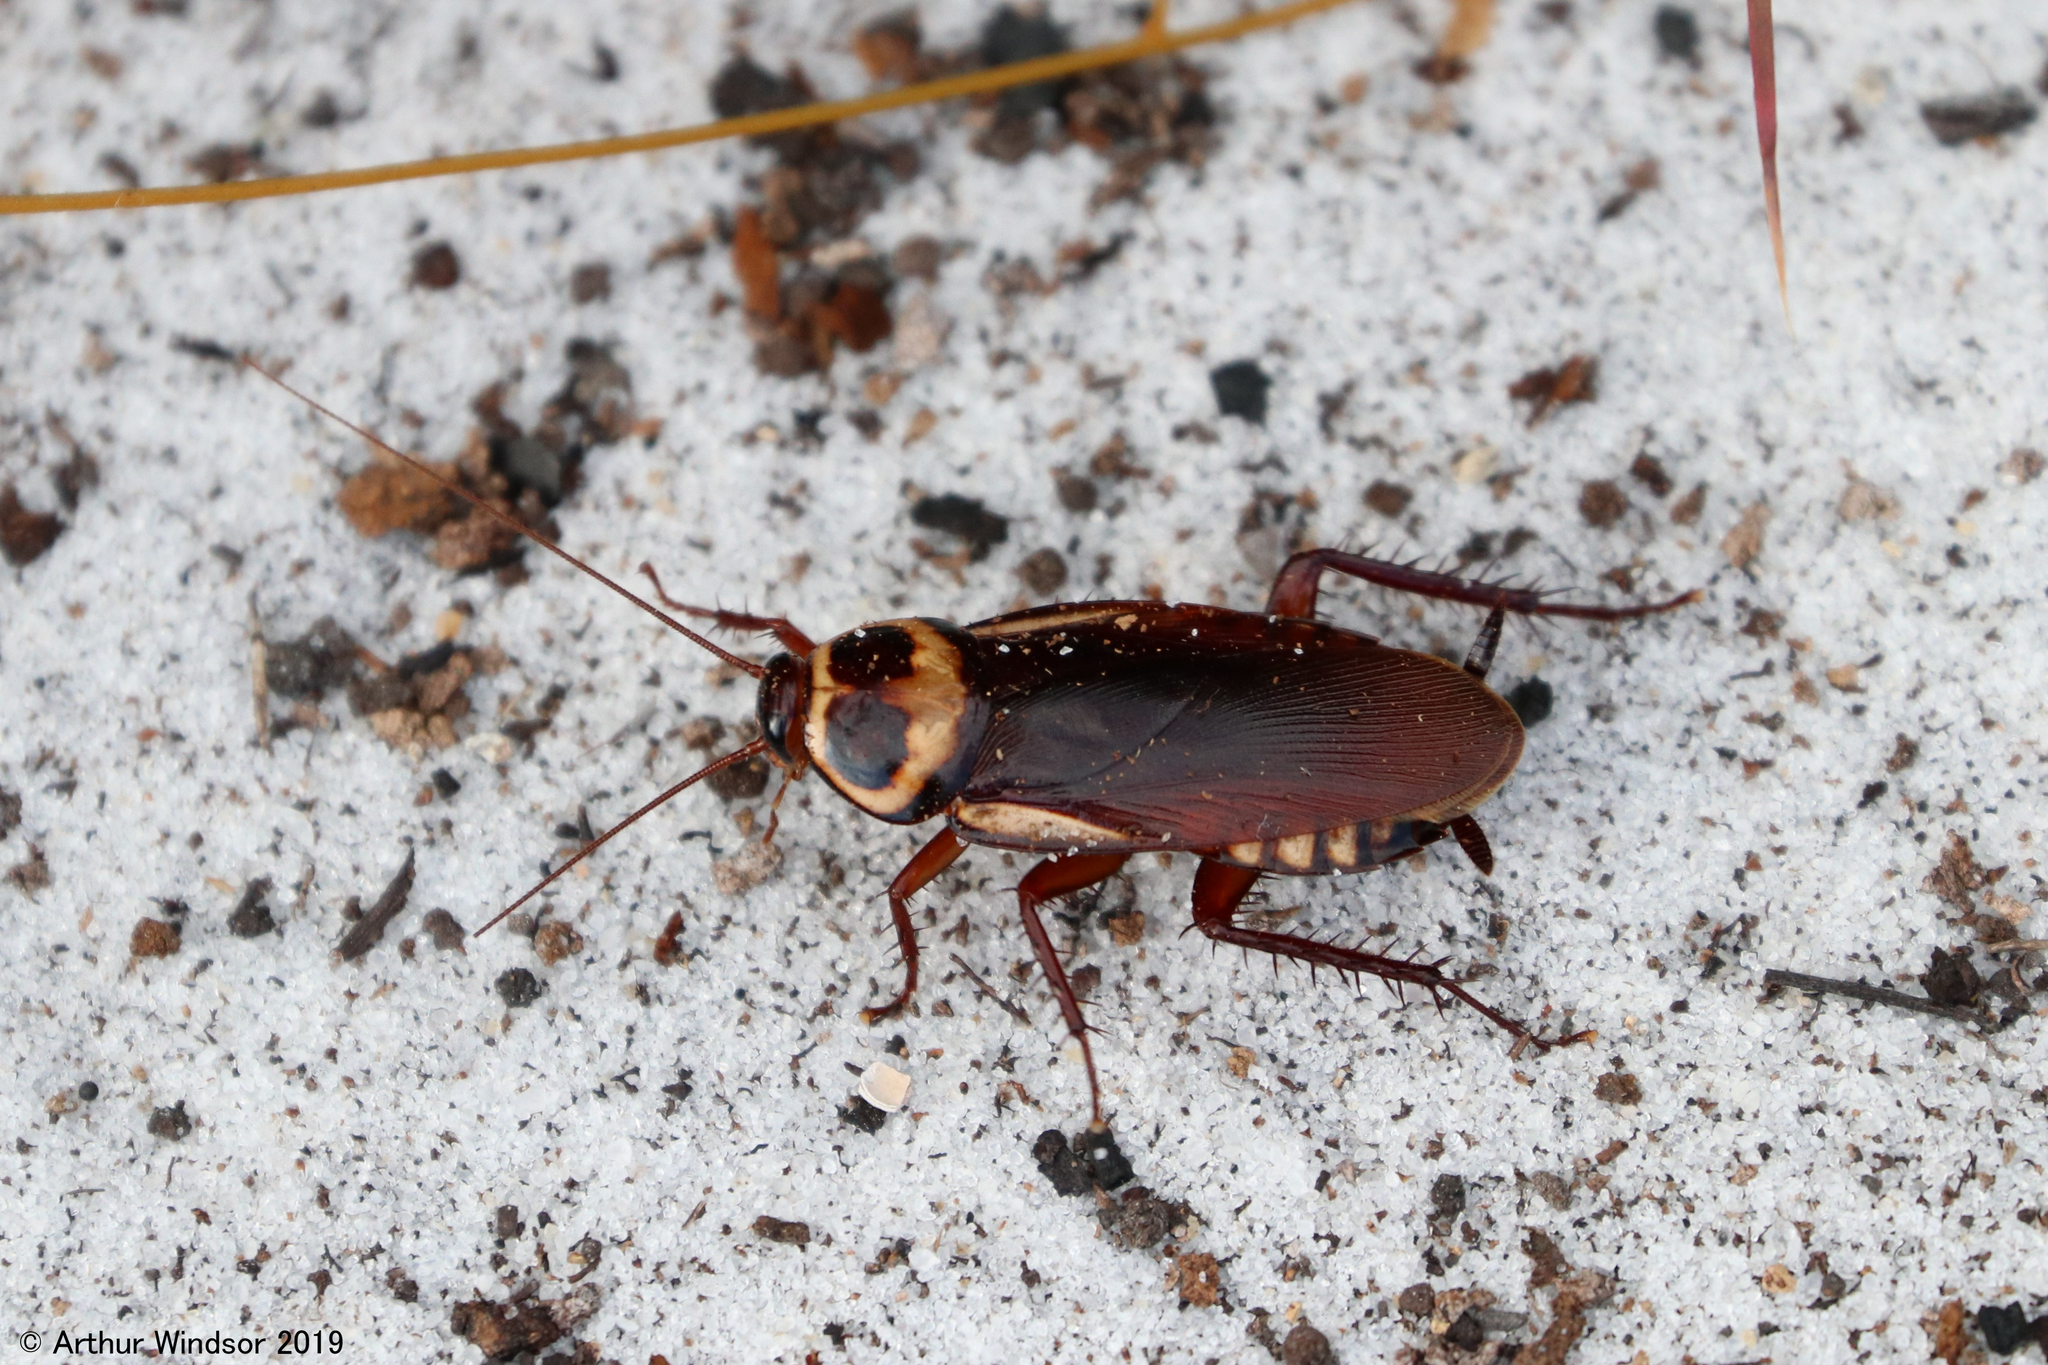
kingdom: Animalia
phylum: Arthropoda
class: Insecta
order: Blattodea
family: Blattidae
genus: Periplaneta
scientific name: Periplaneta australasiae
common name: Australian cockroach
